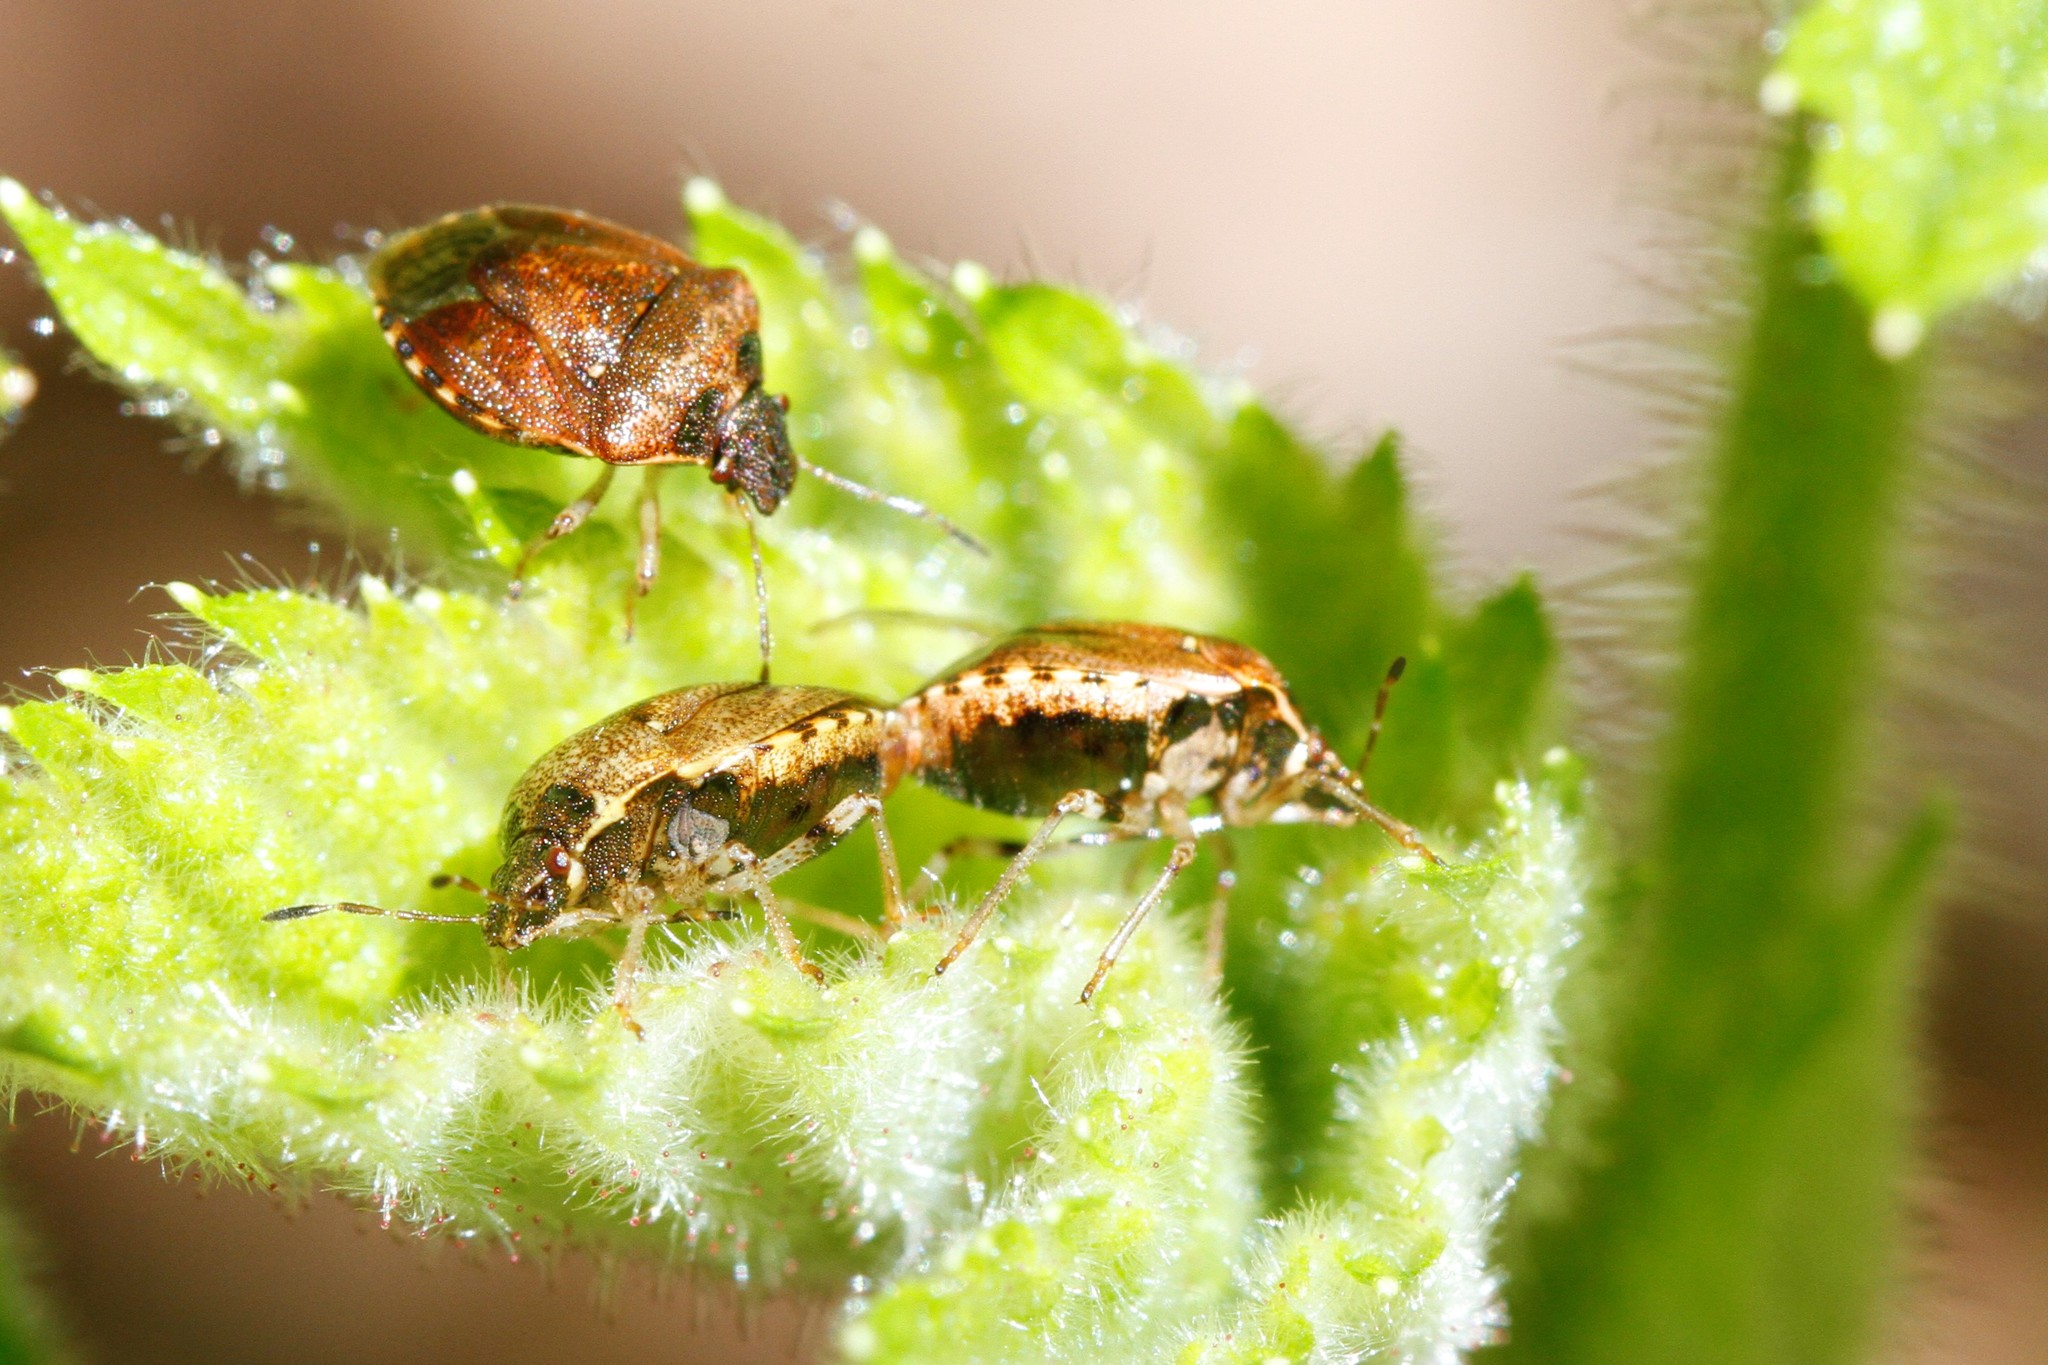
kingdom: Animalia
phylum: Arthropoda
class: Insecta
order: Hemiptera
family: Pentatomidae
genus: Cosmopepla
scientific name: Cosmopepla intergressus
